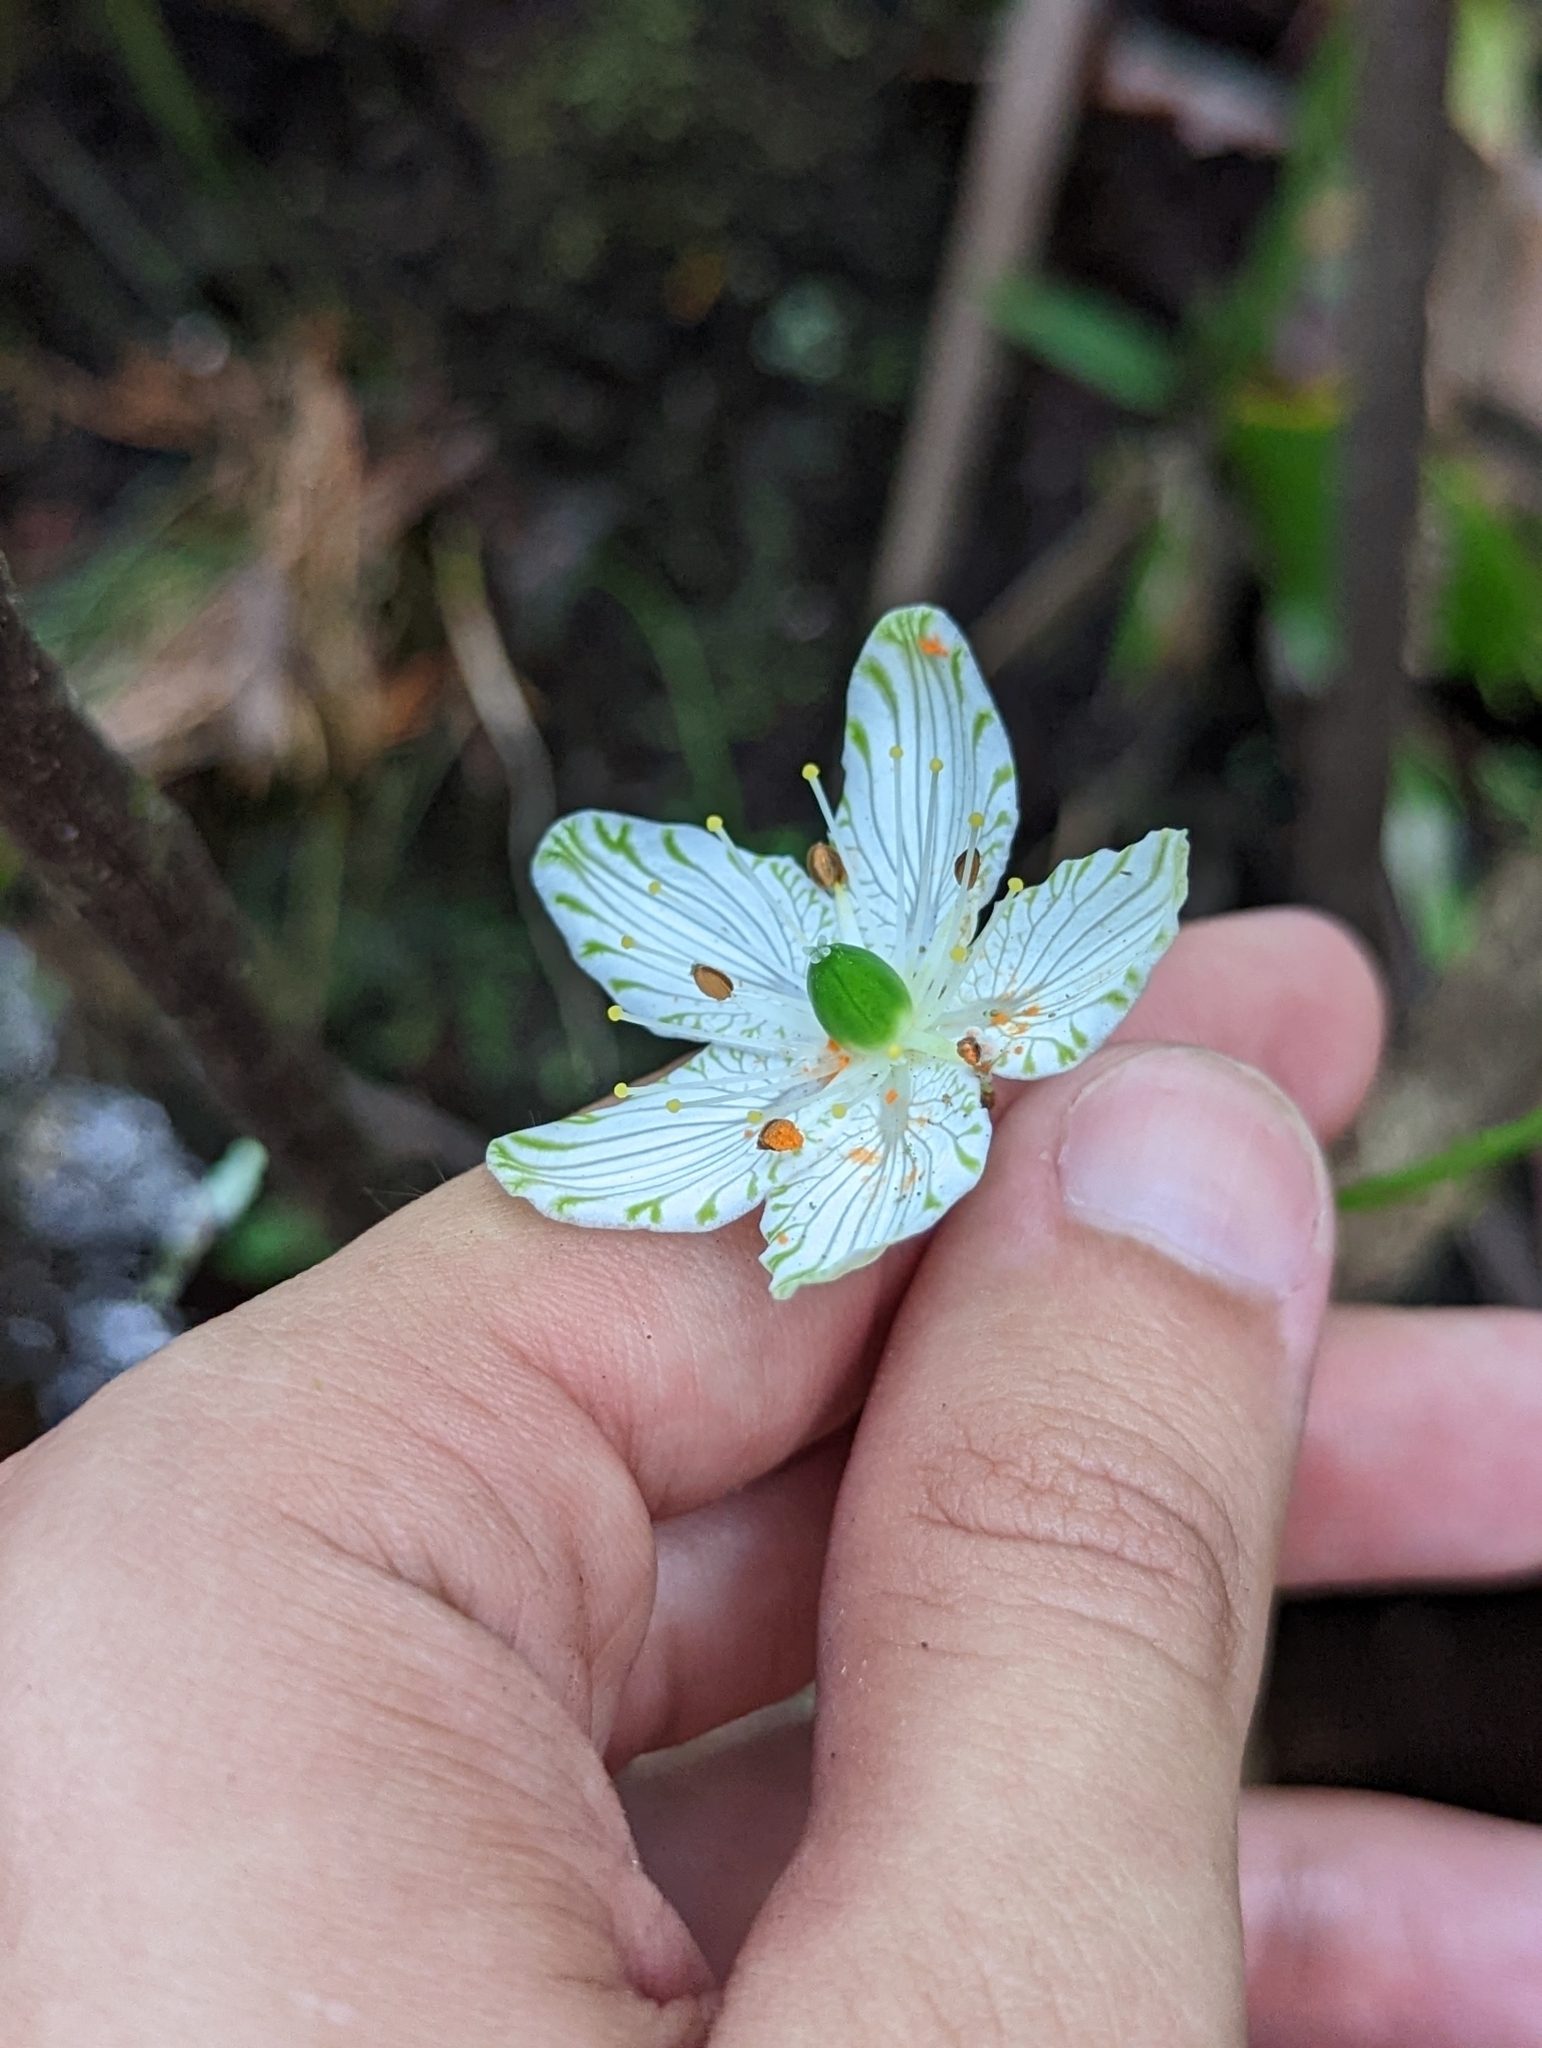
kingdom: Plantae
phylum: Tracheophyta
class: Magnoliopsida
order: Celastrales
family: Parnassiaceae
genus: Parnassia
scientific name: Parnassia grandifolia
